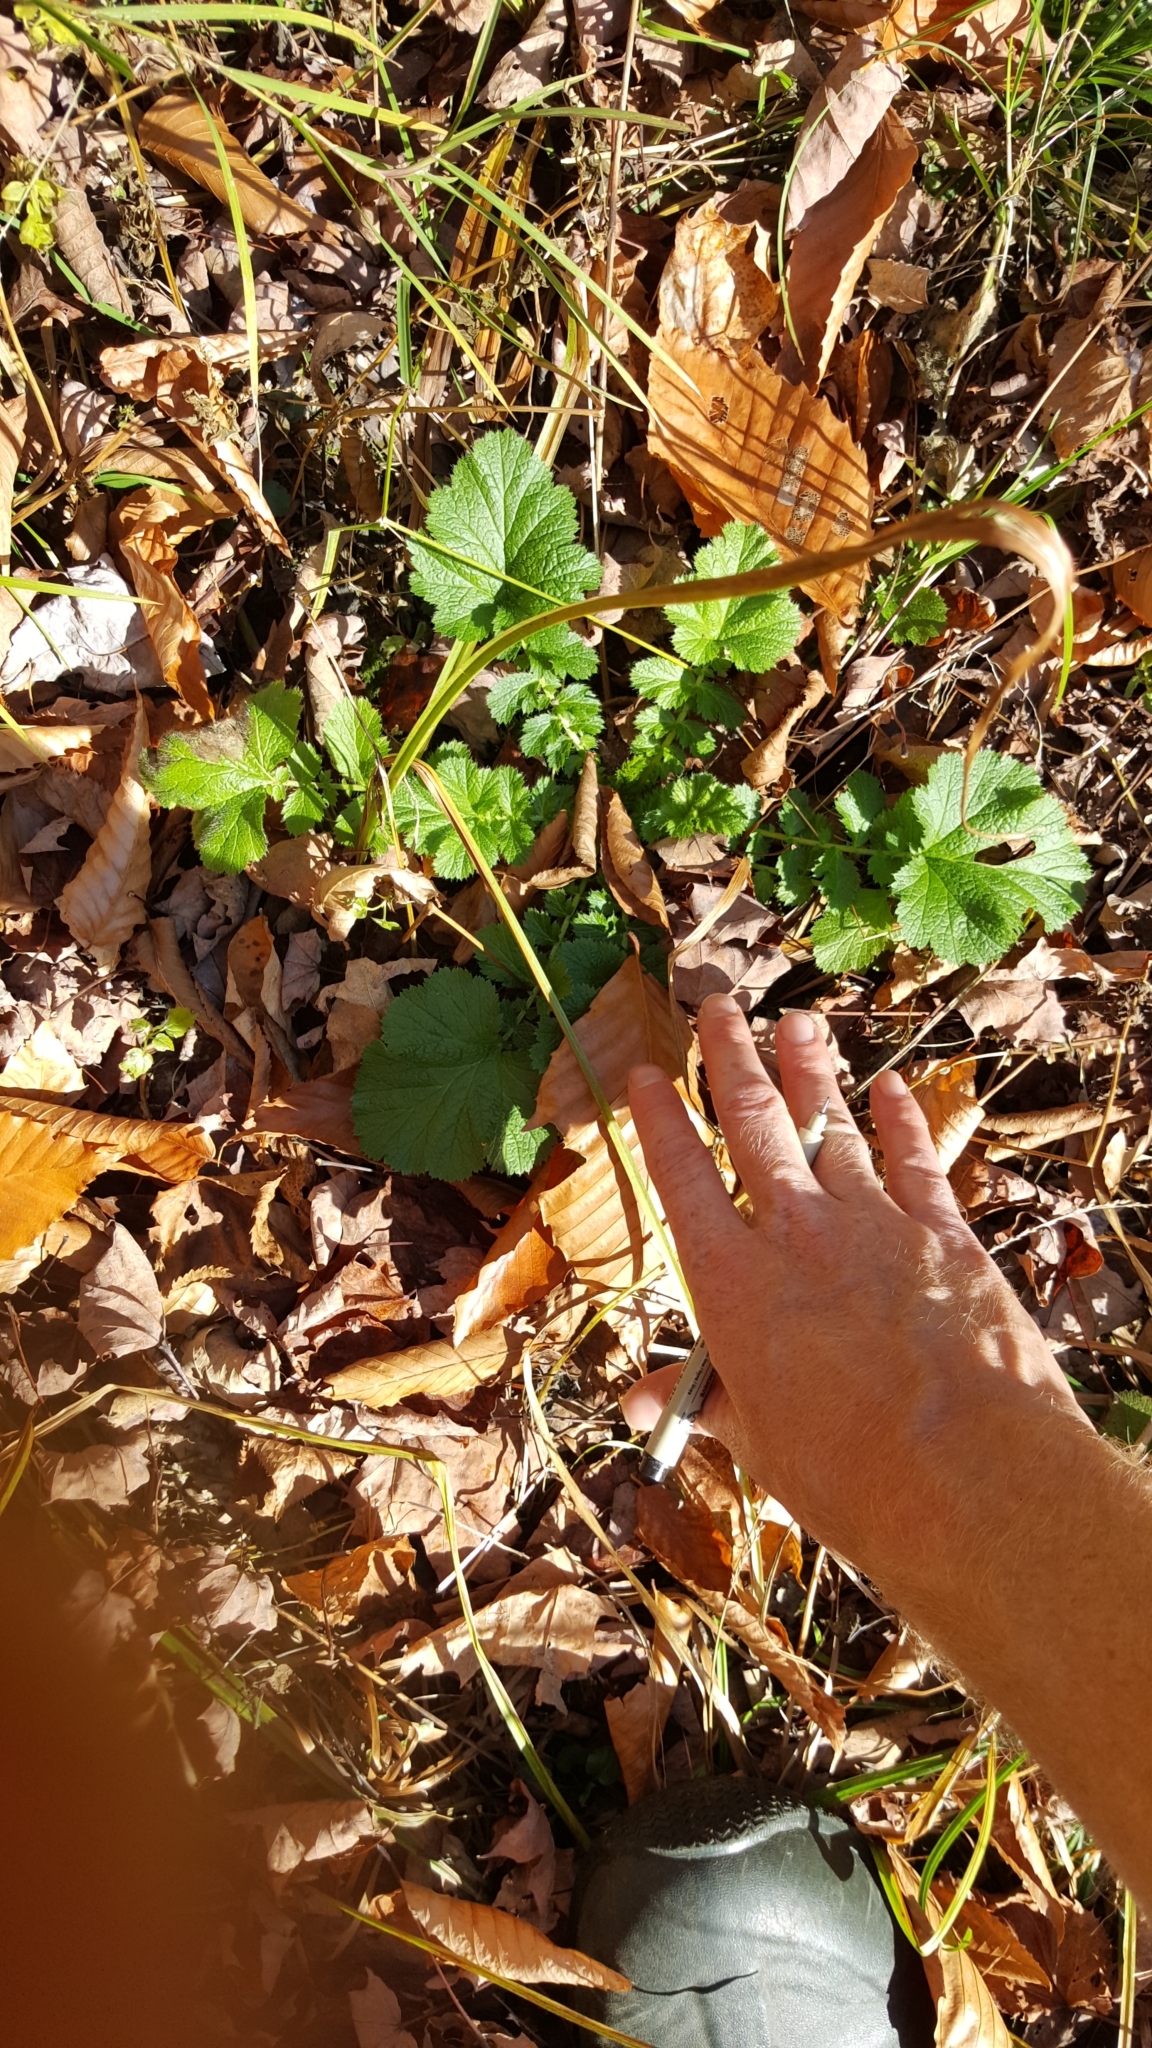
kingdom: Plantae
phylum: Tracheophyta
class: Magnoliopsida
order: Rosales
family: Rosaceae
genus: Geum
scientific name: Geum rivale
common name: Water avens
